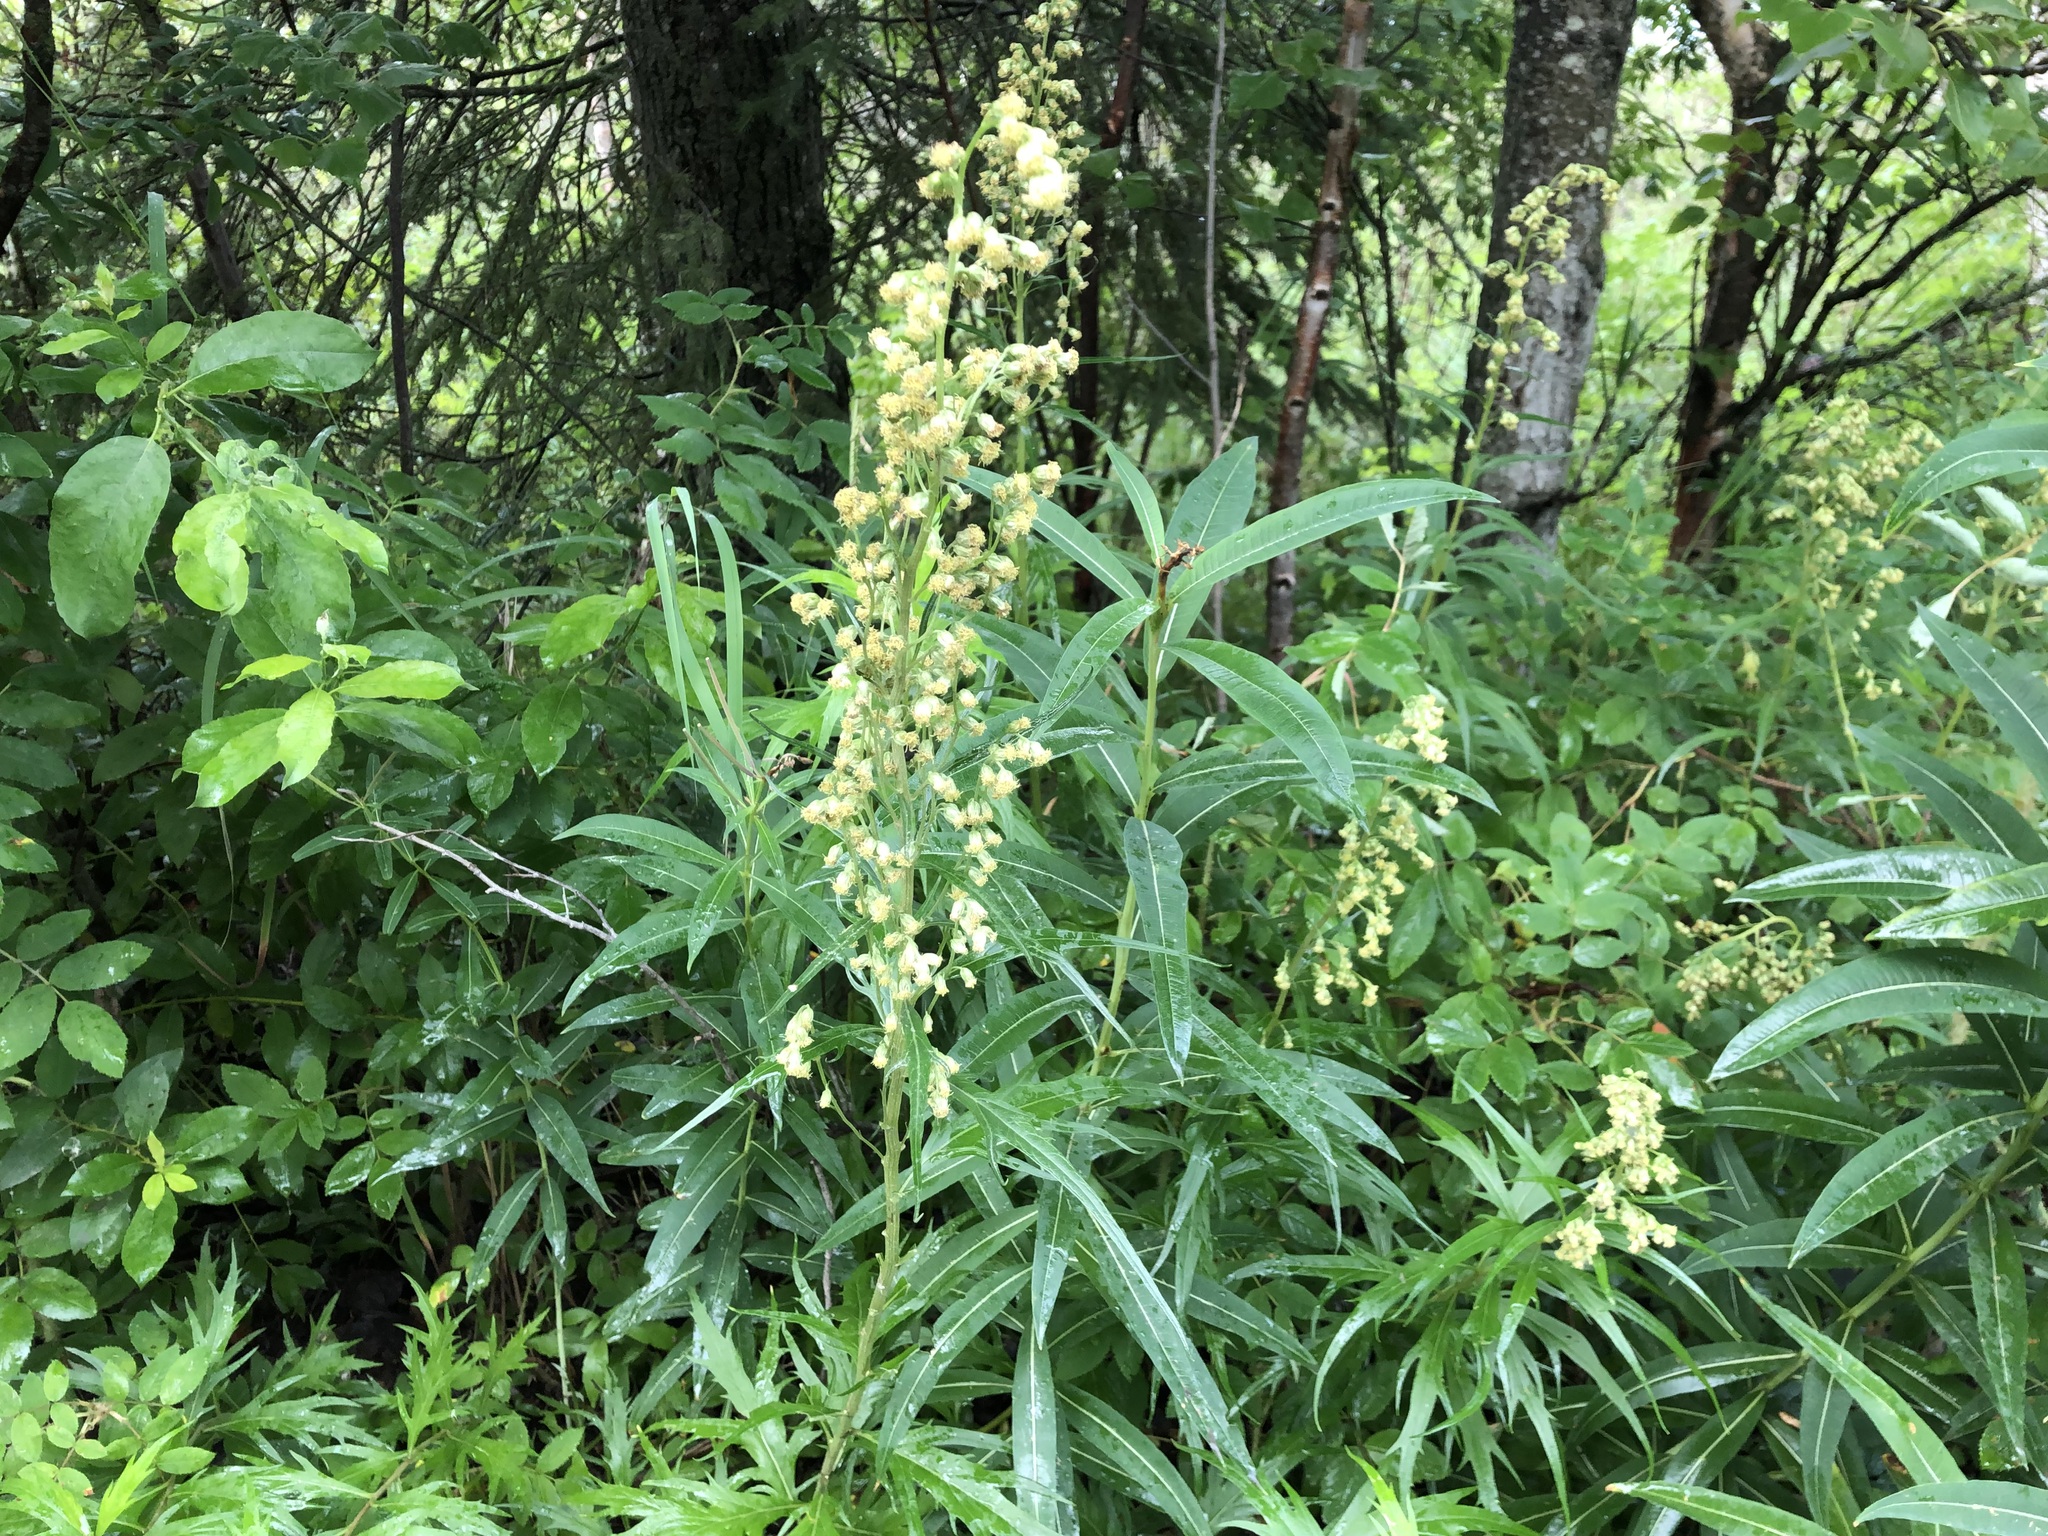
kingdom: Plantae
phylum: Tracheophyta
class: Magnoliopsida
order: Asterales
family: Asteraceae
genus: Artemisia
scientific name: Artemisia tilesii
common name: Aleutian mugwort
